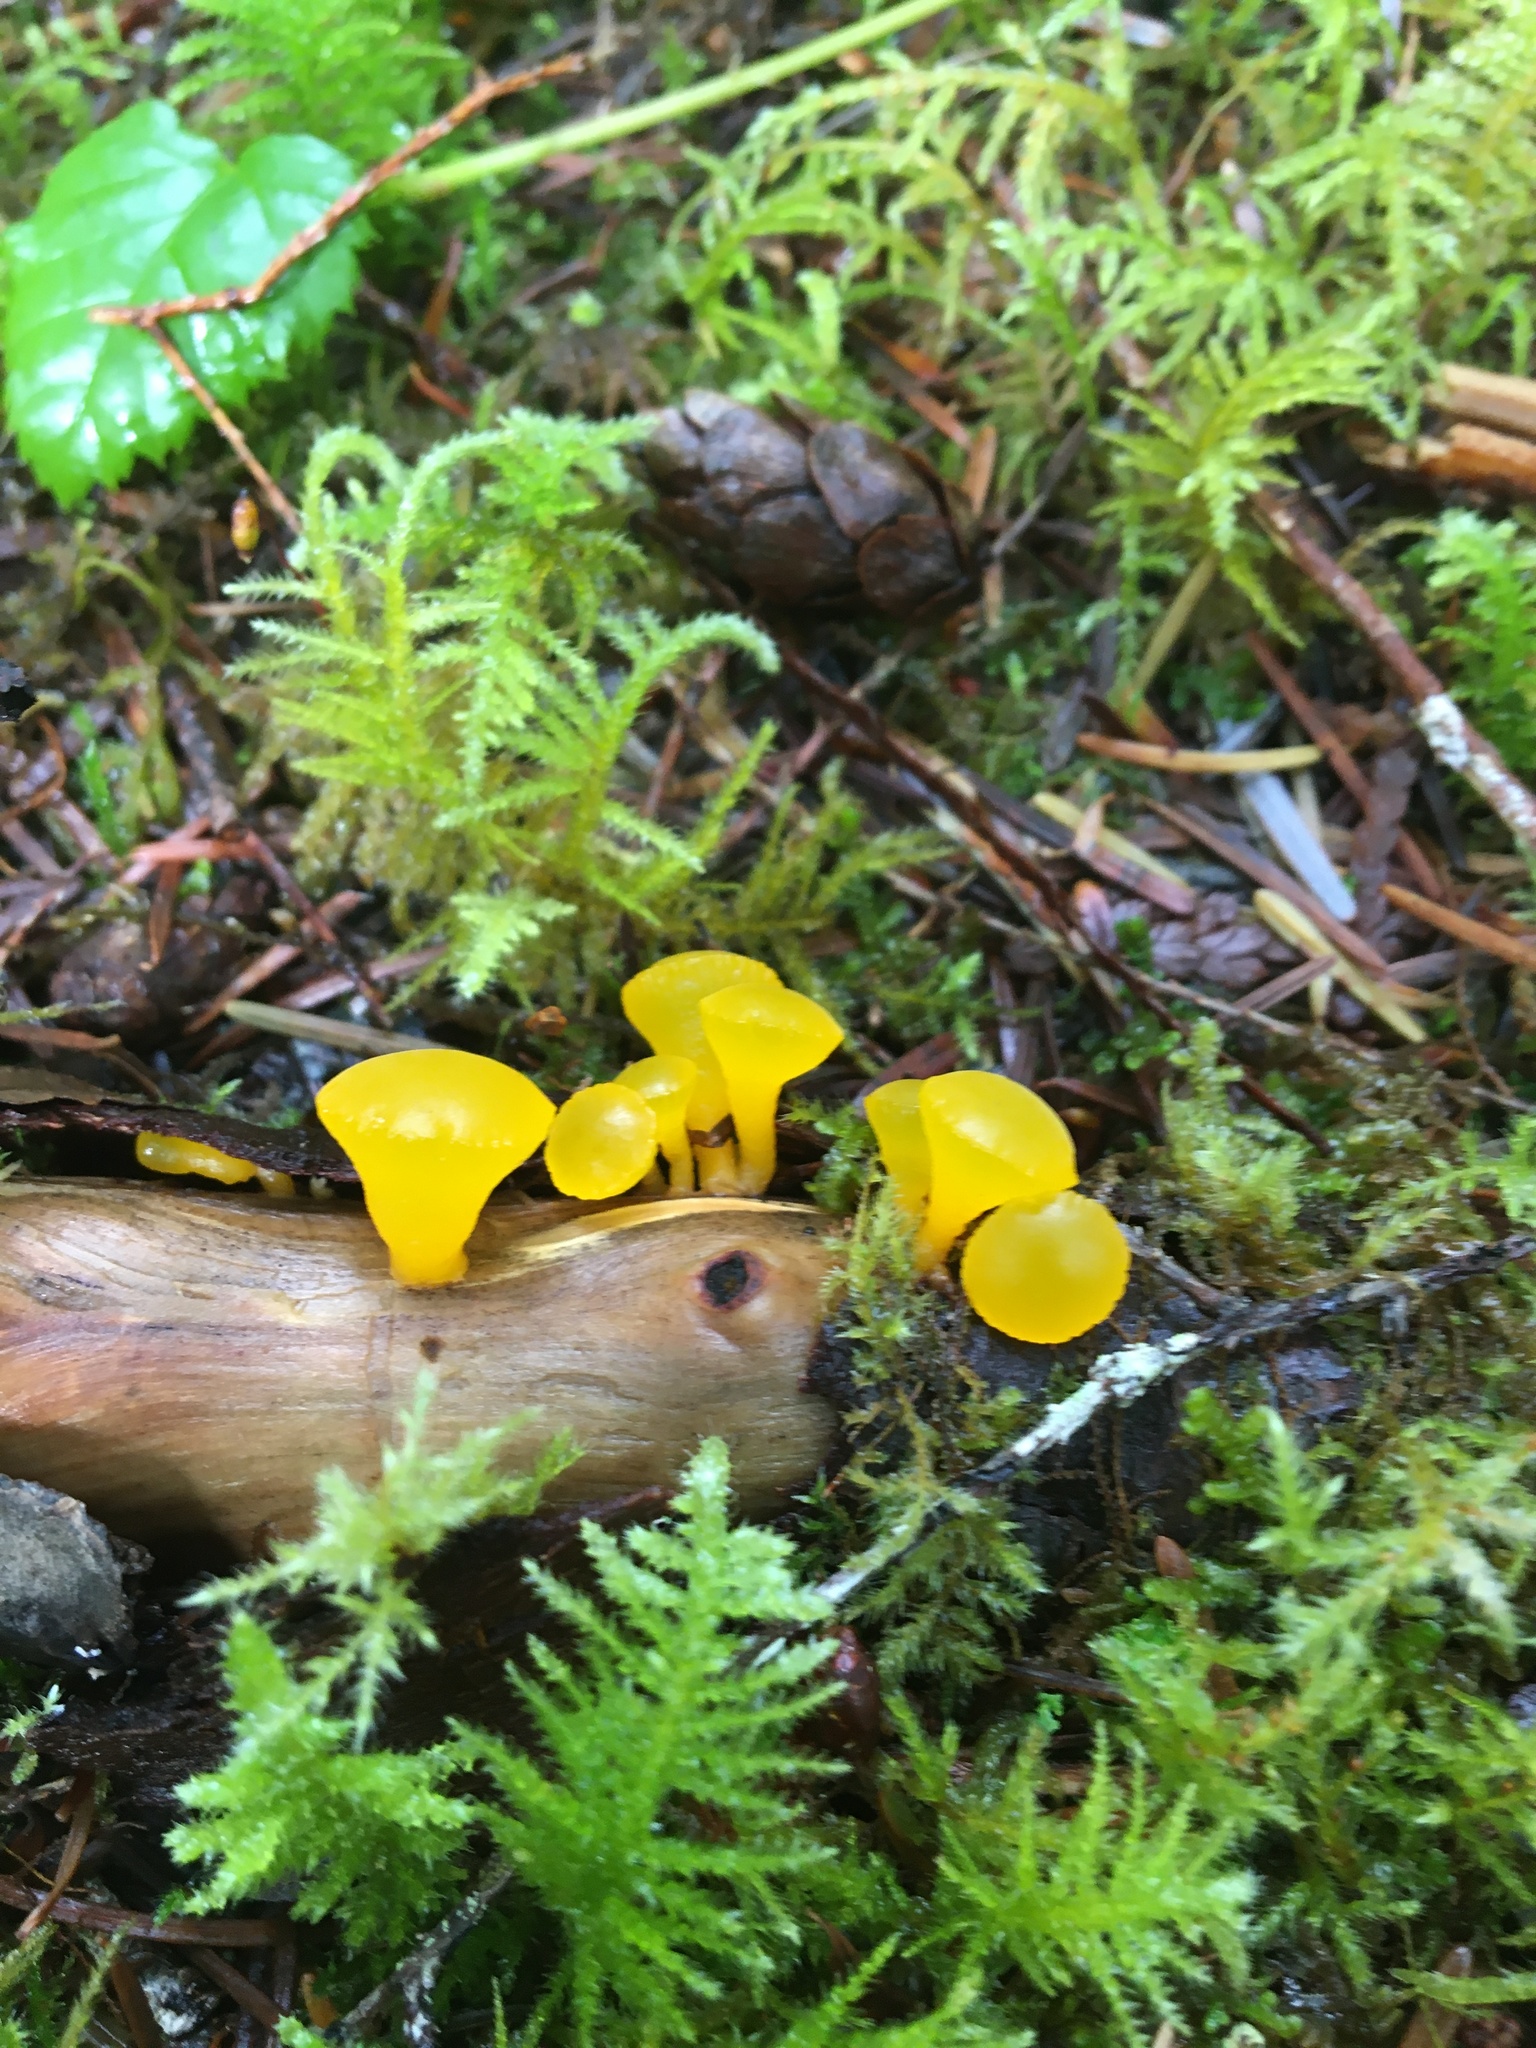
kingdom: Fungi
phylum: Basidiomycota
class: Dacrymycetes
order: Dacrymycetales
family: Dacrymycetaceae
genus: Guepiniopsis
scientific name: Guepiniopsis alpina
